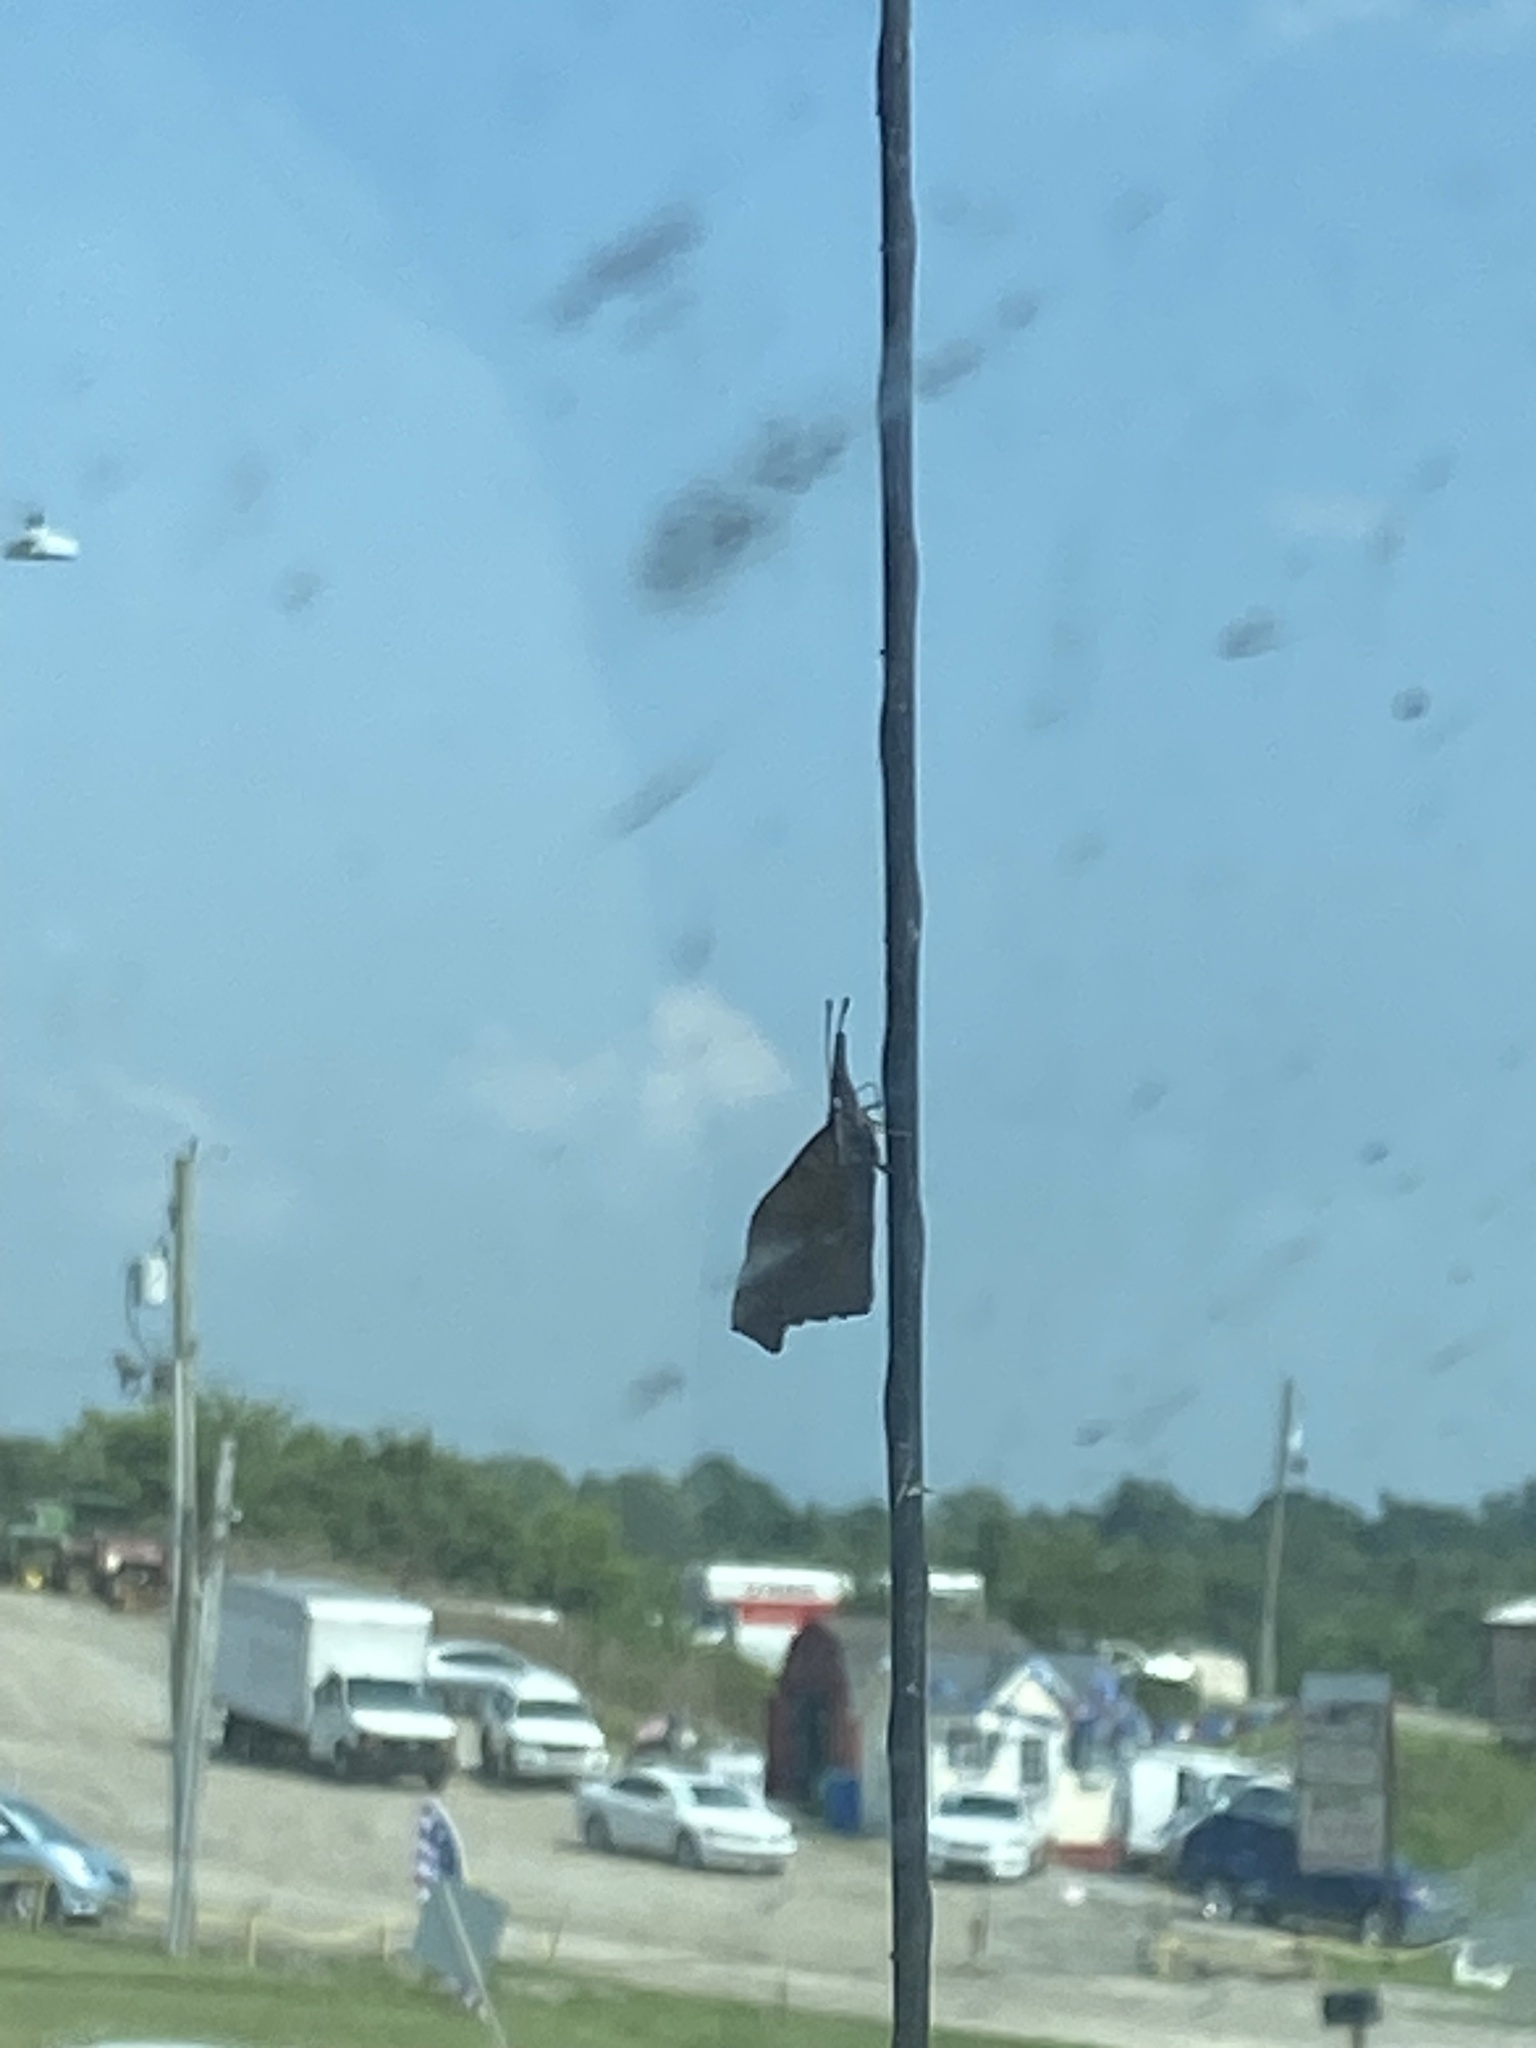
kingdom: Animalia
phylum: Arthropoda
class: Insecta
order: Lepidoptera
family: Nymphalidae
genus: Libytheana
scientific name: Libytheana carinenta
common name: American snout
